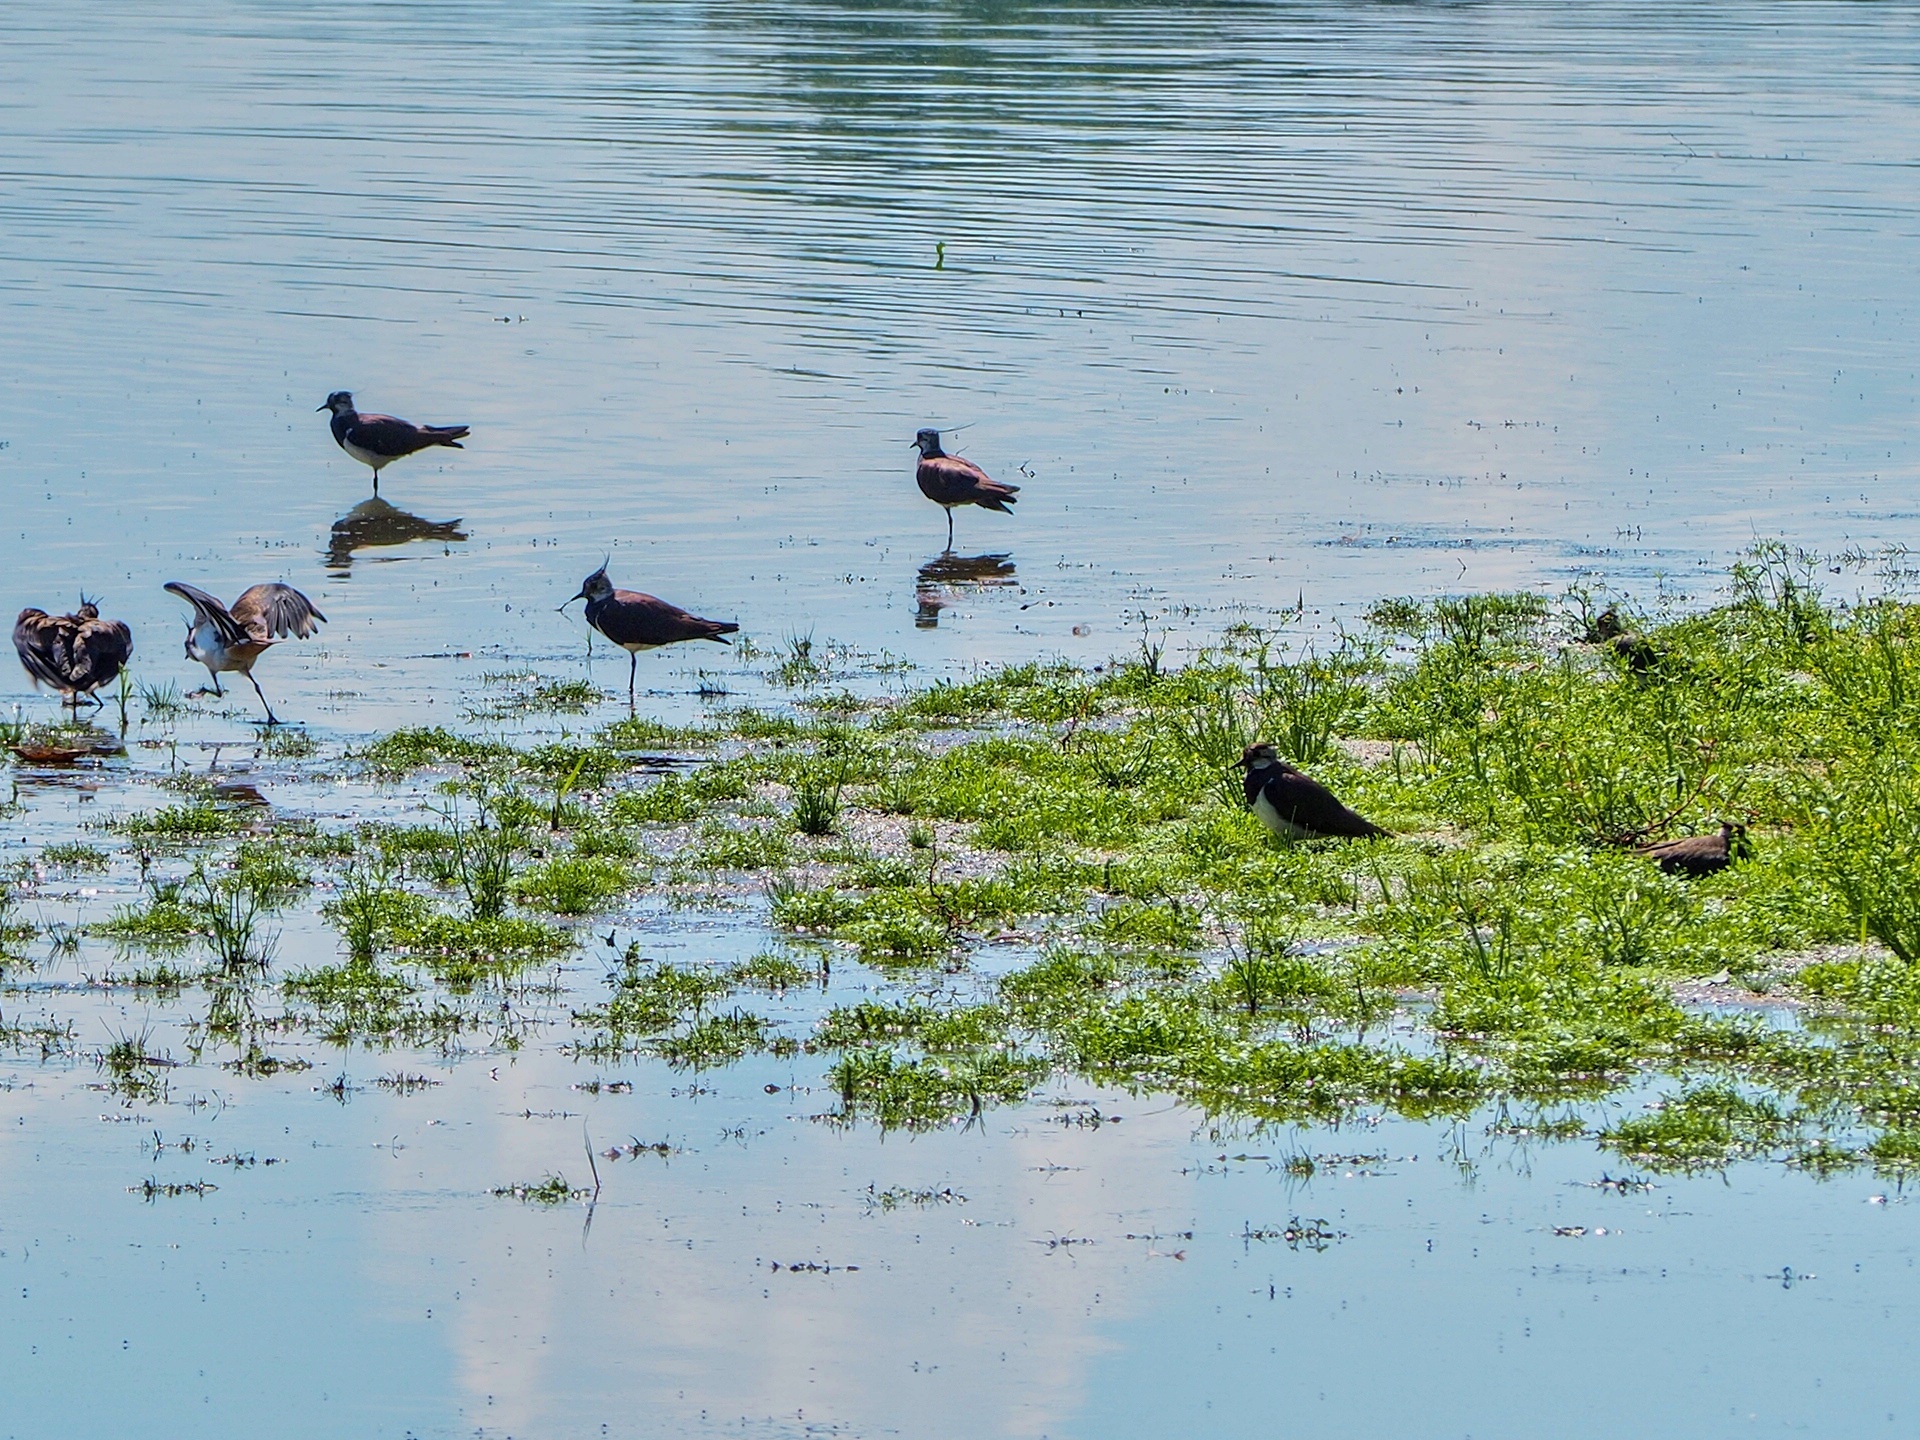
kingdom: Animalia
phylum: Chordata
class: Aves
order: Charadriiformes
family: Charadriidae
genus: Vanellus
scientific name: Vanellus vanellus
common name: Northern lapwing
